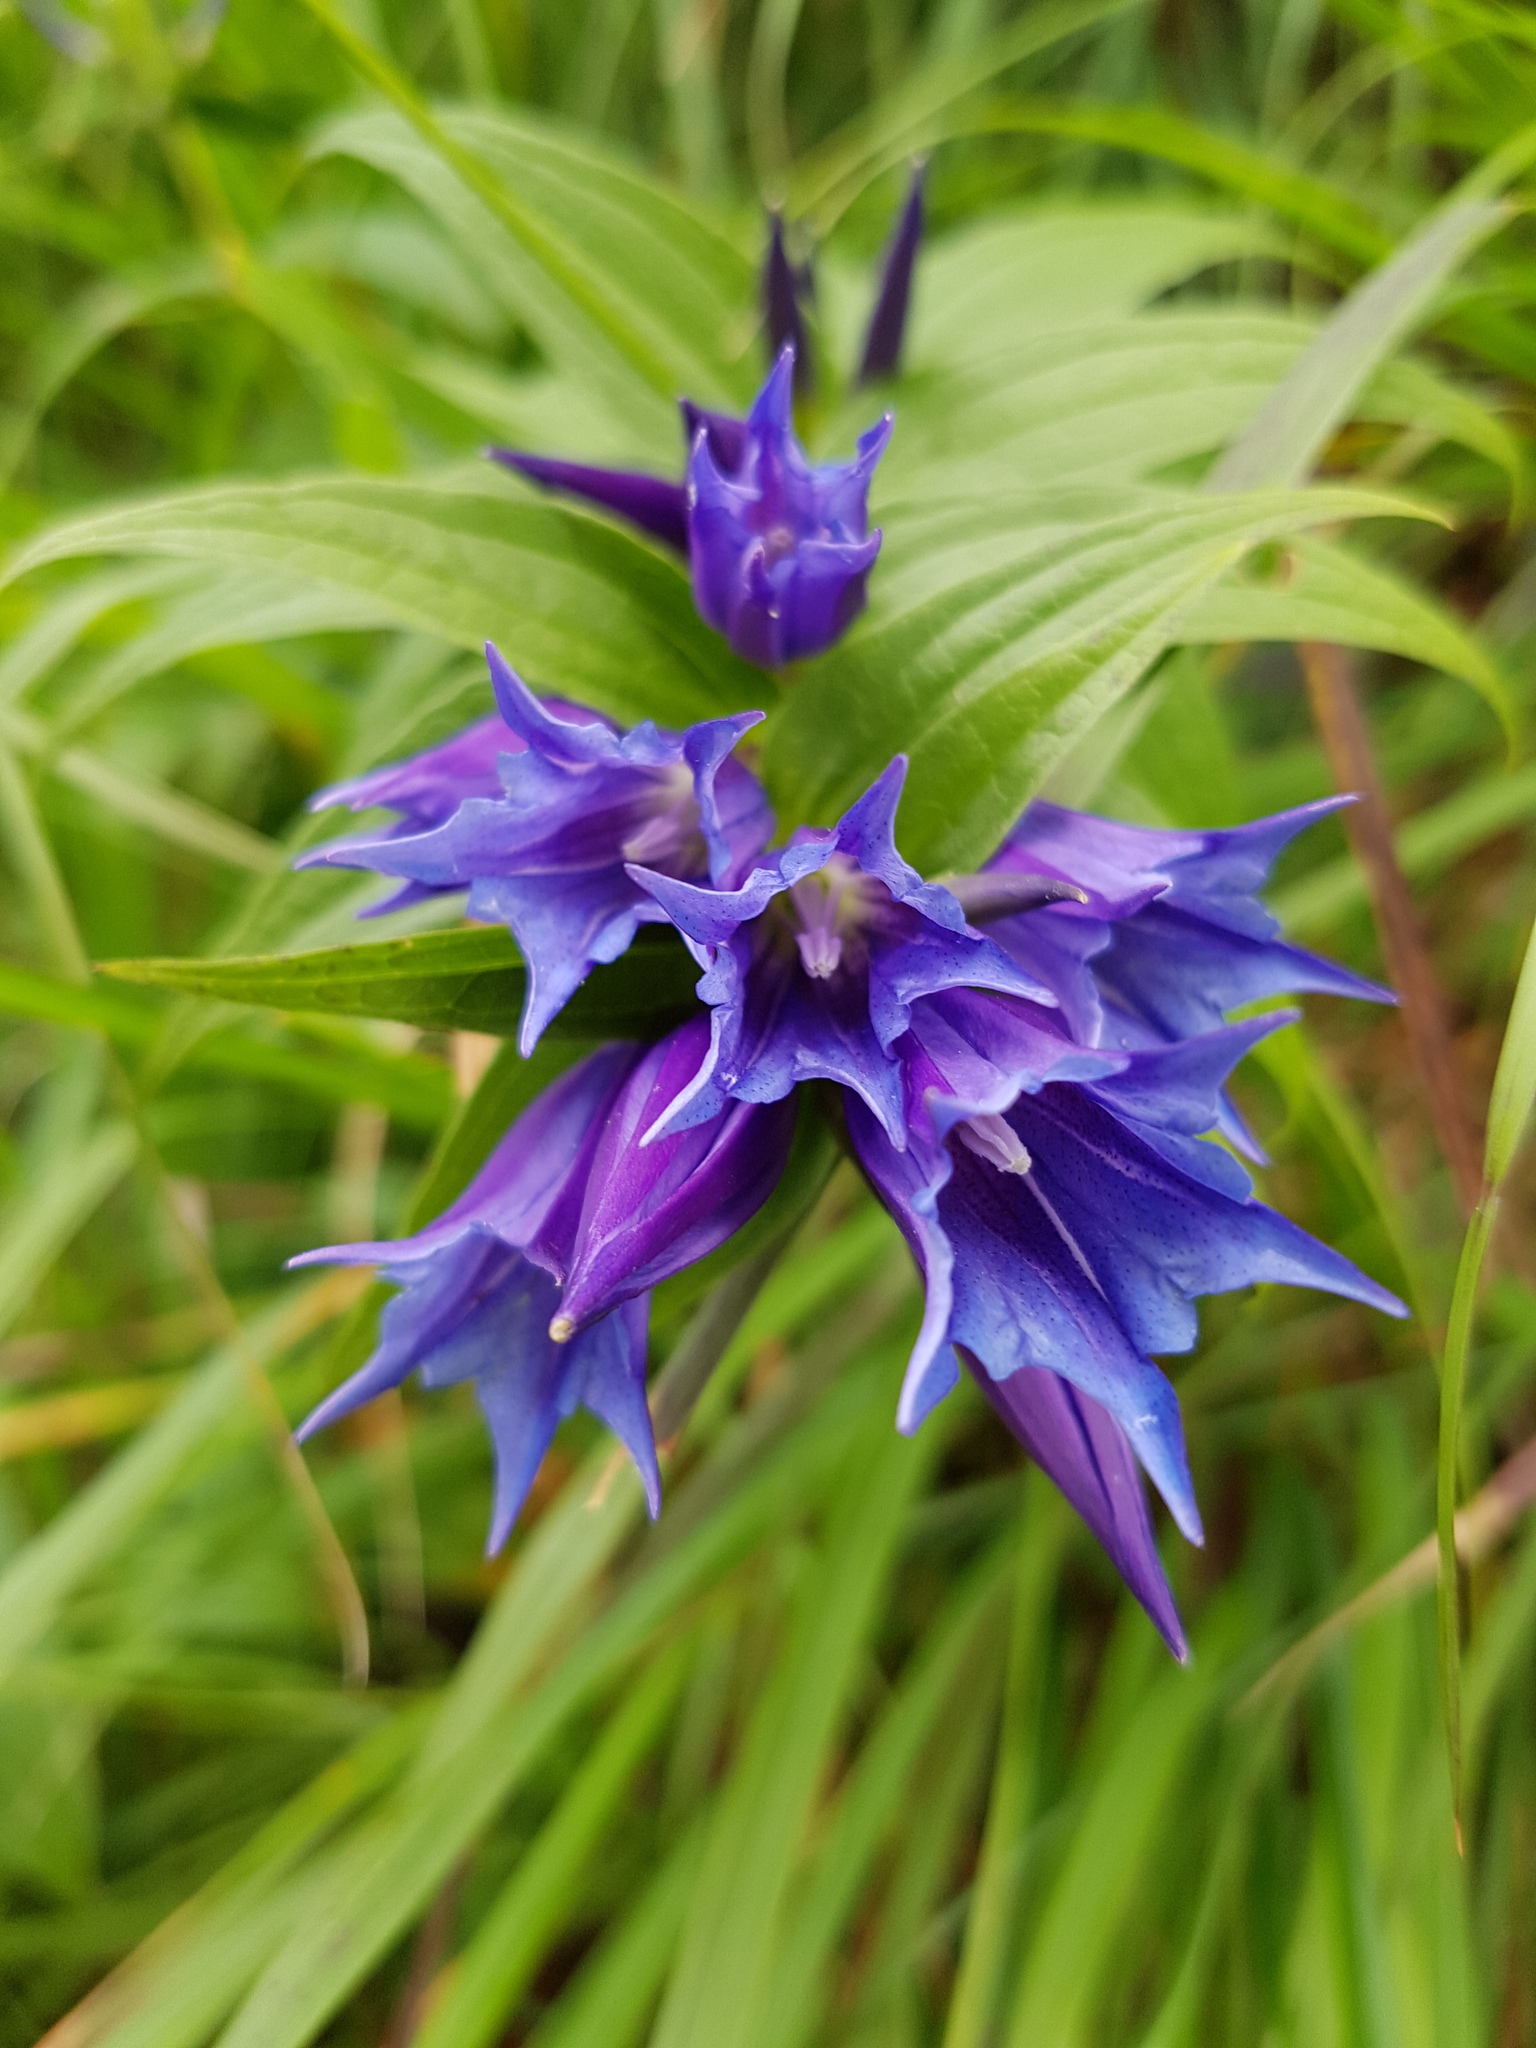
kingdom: Plantae
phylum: Tracheophyta
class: Magnoliopsida
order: Gentianales
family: Gentianaceae
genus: Gentiana
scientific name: Gentiana asclepiadea
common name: Willow gentian
